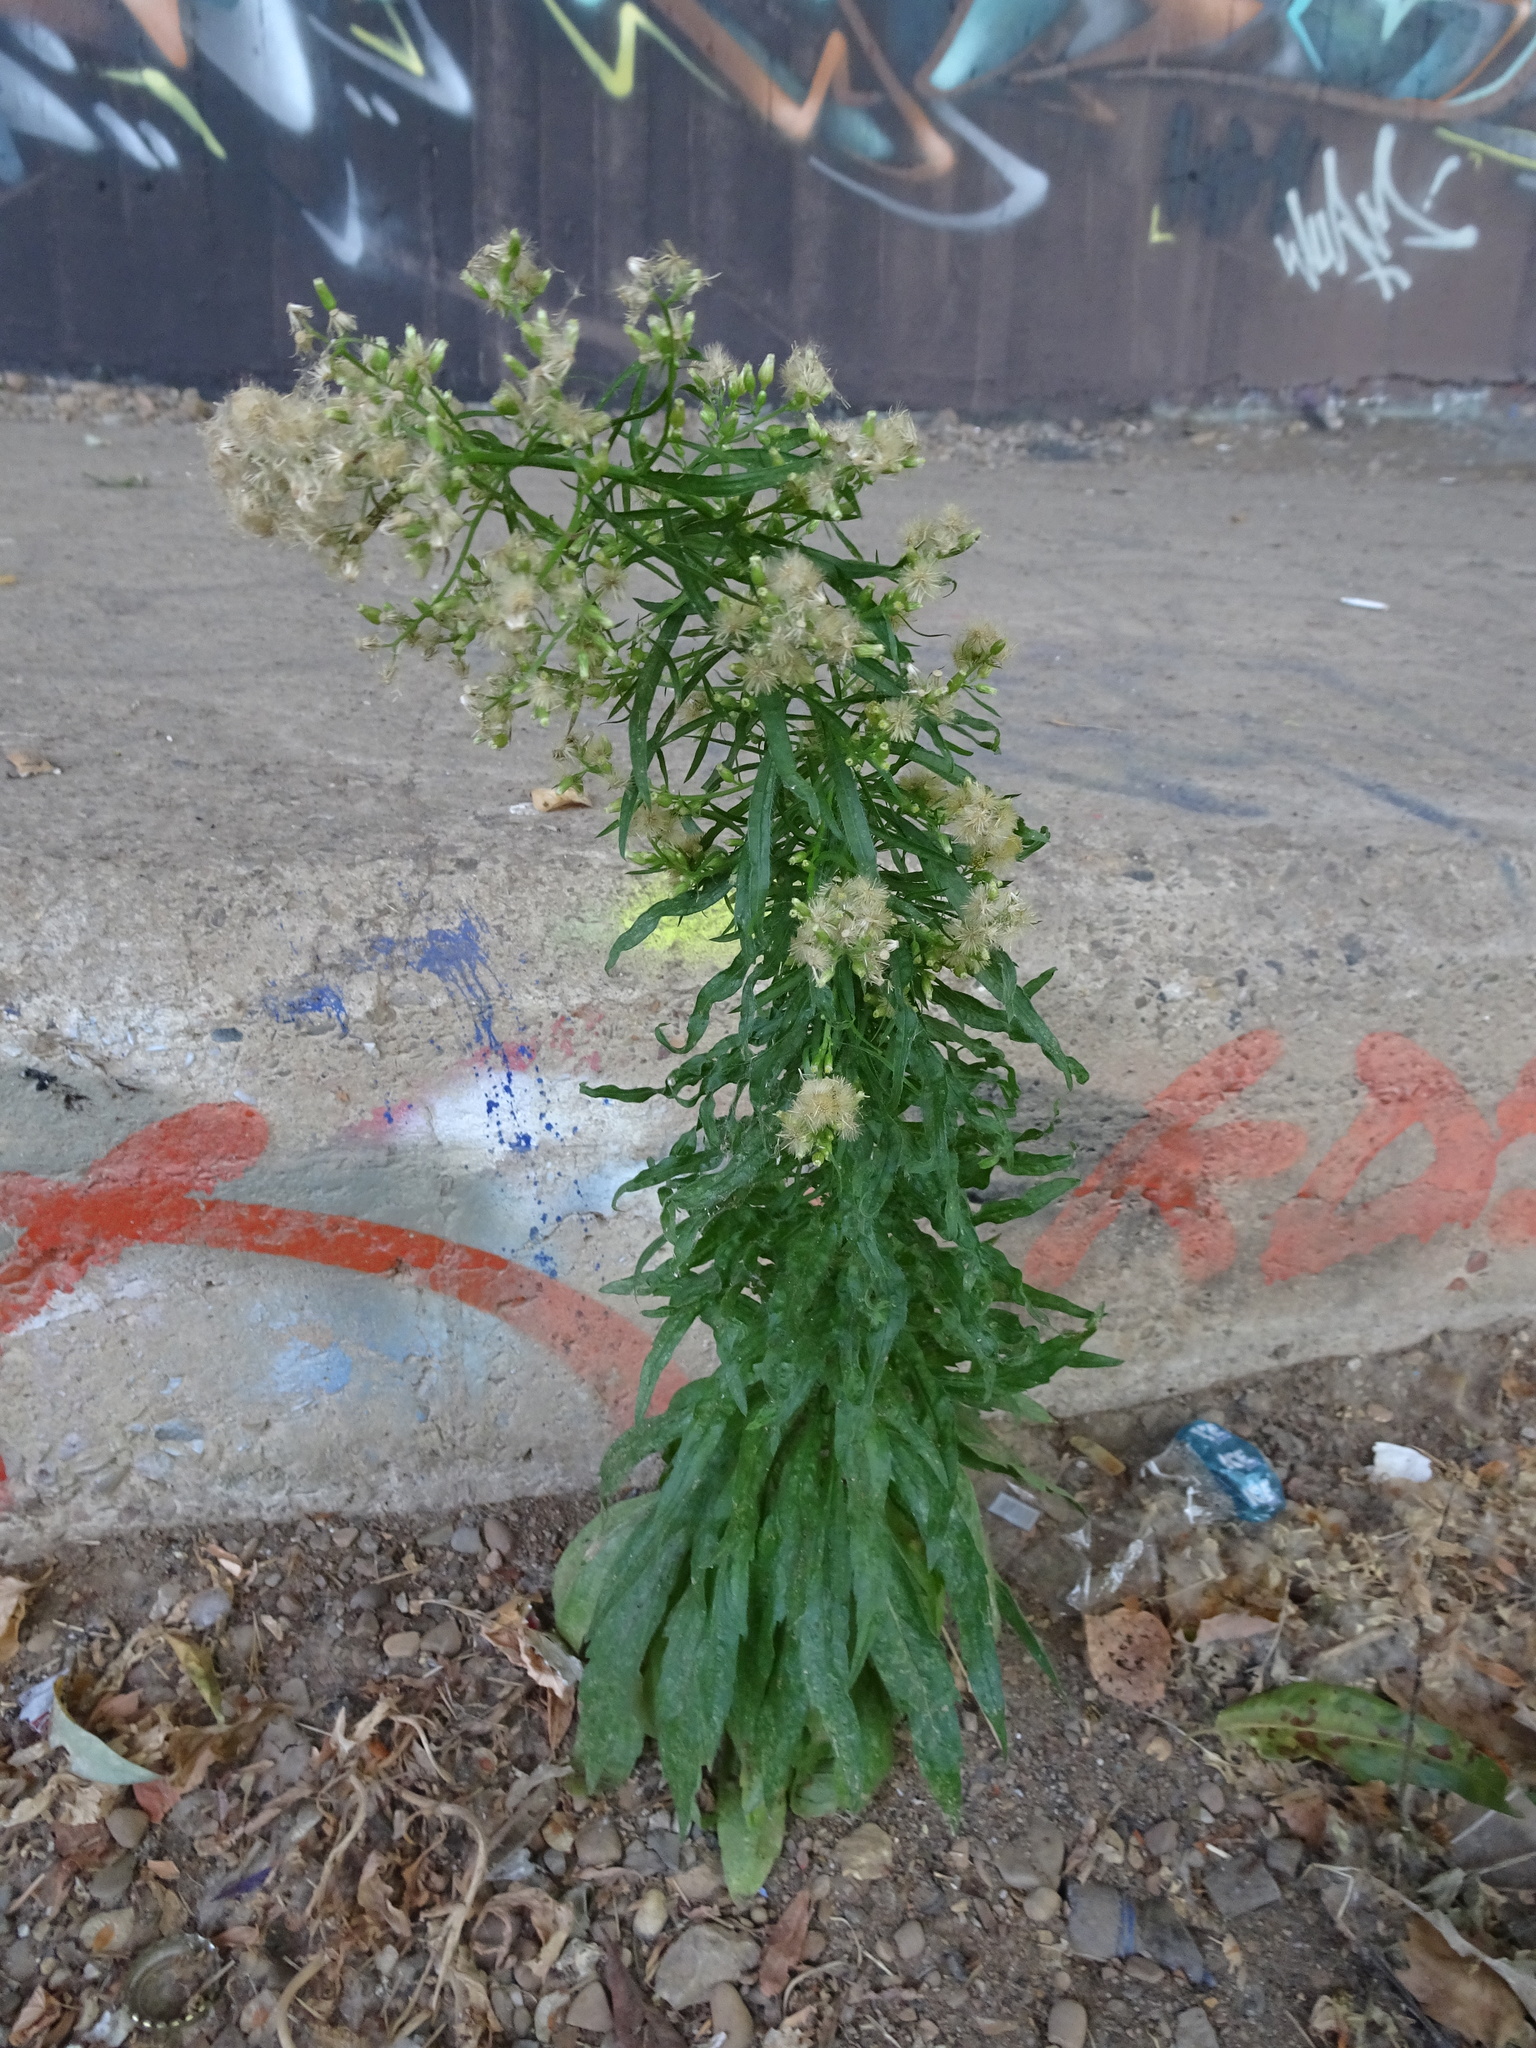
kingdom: Plantae
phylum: Tracheophyta
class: Magnoliopsida
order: Asterales
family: Asteraceae
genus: Erigeron
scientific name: Erigeron canadensis
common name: Canadian fleabane
